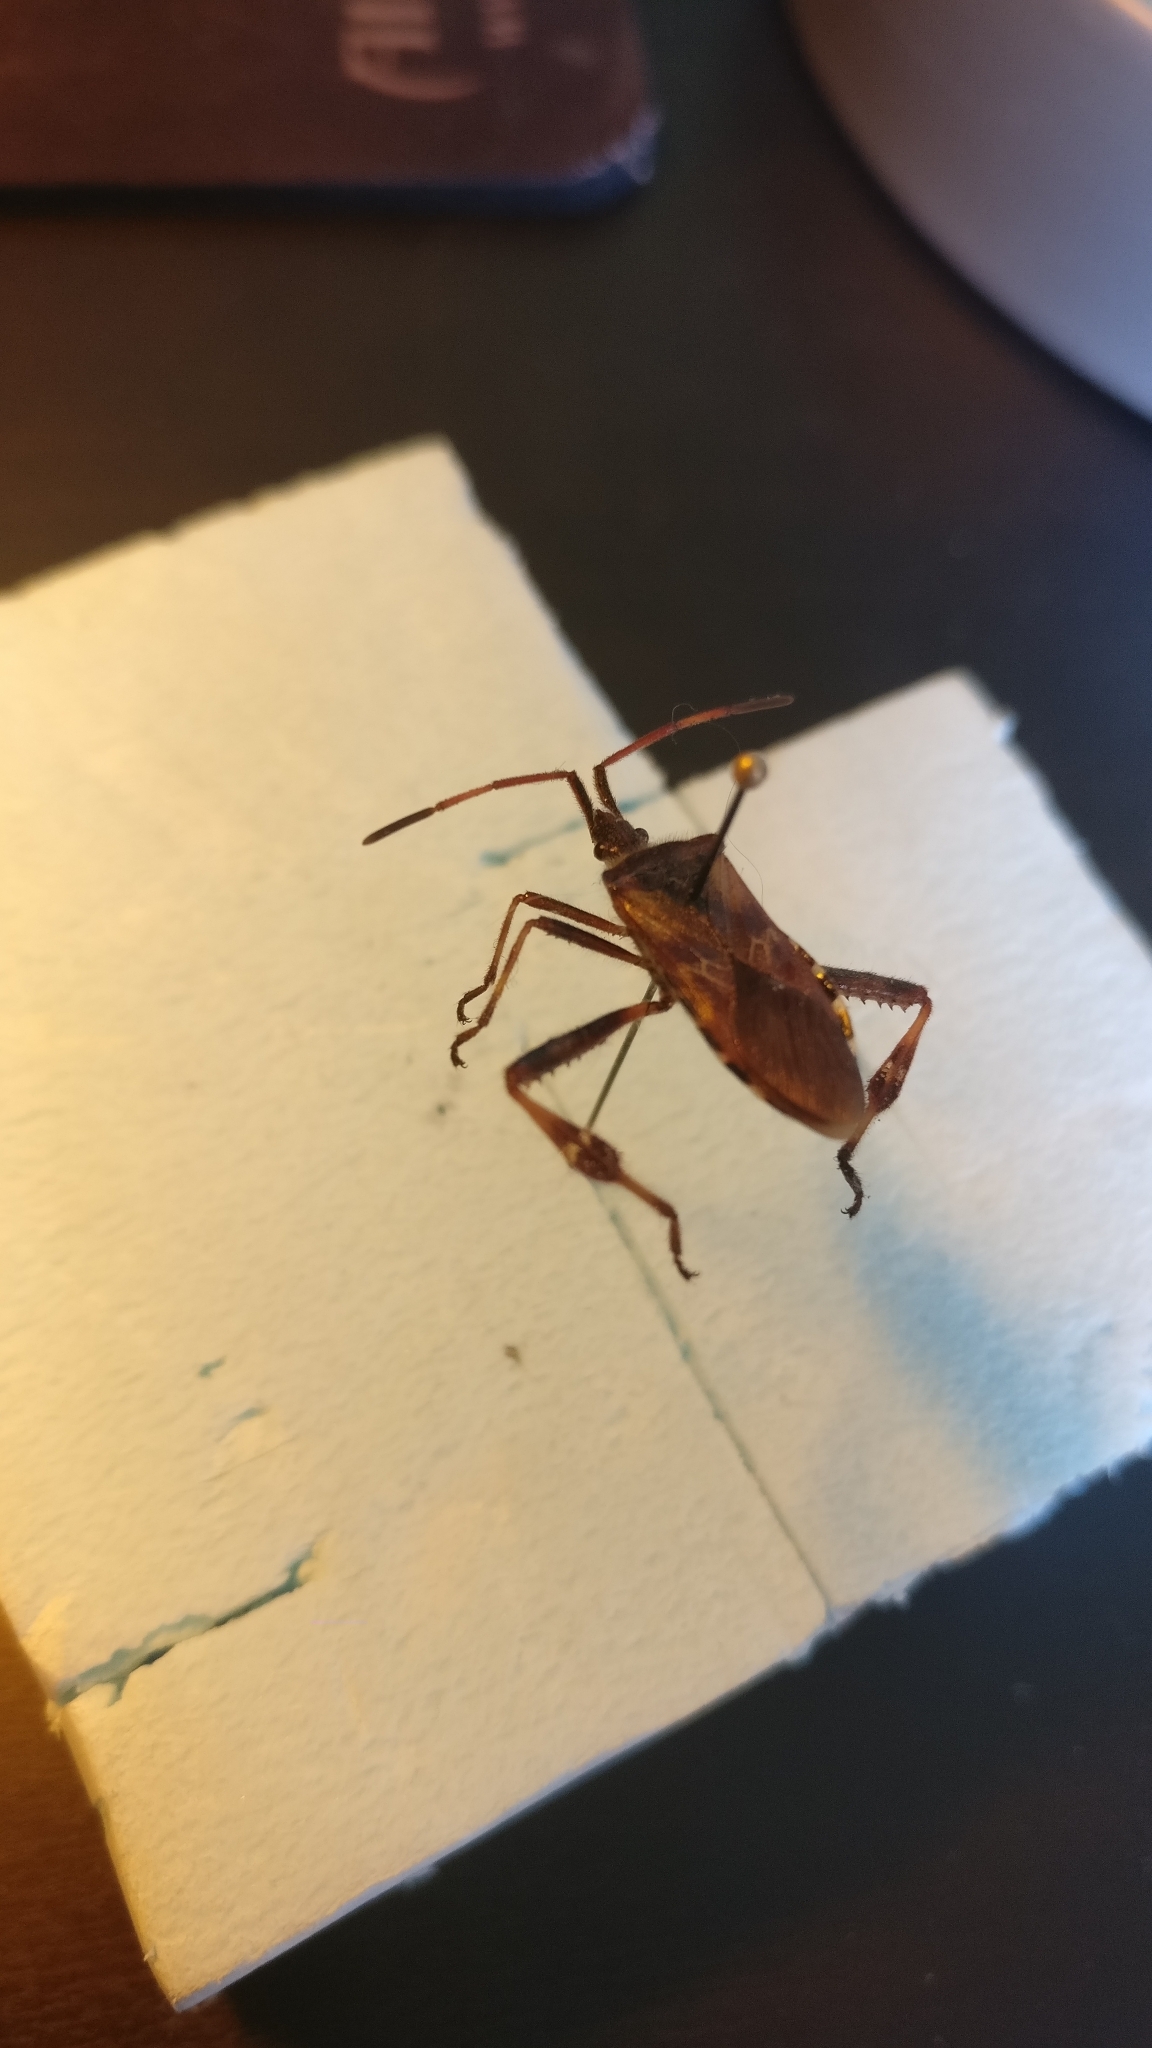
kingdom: Animalia
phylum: Arthropoda
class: Insecta
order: Hemiptera
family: Coreidae
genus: Leptoglossus
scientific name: Leptoglossus occidentalis
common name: Western conifer-seed bug
